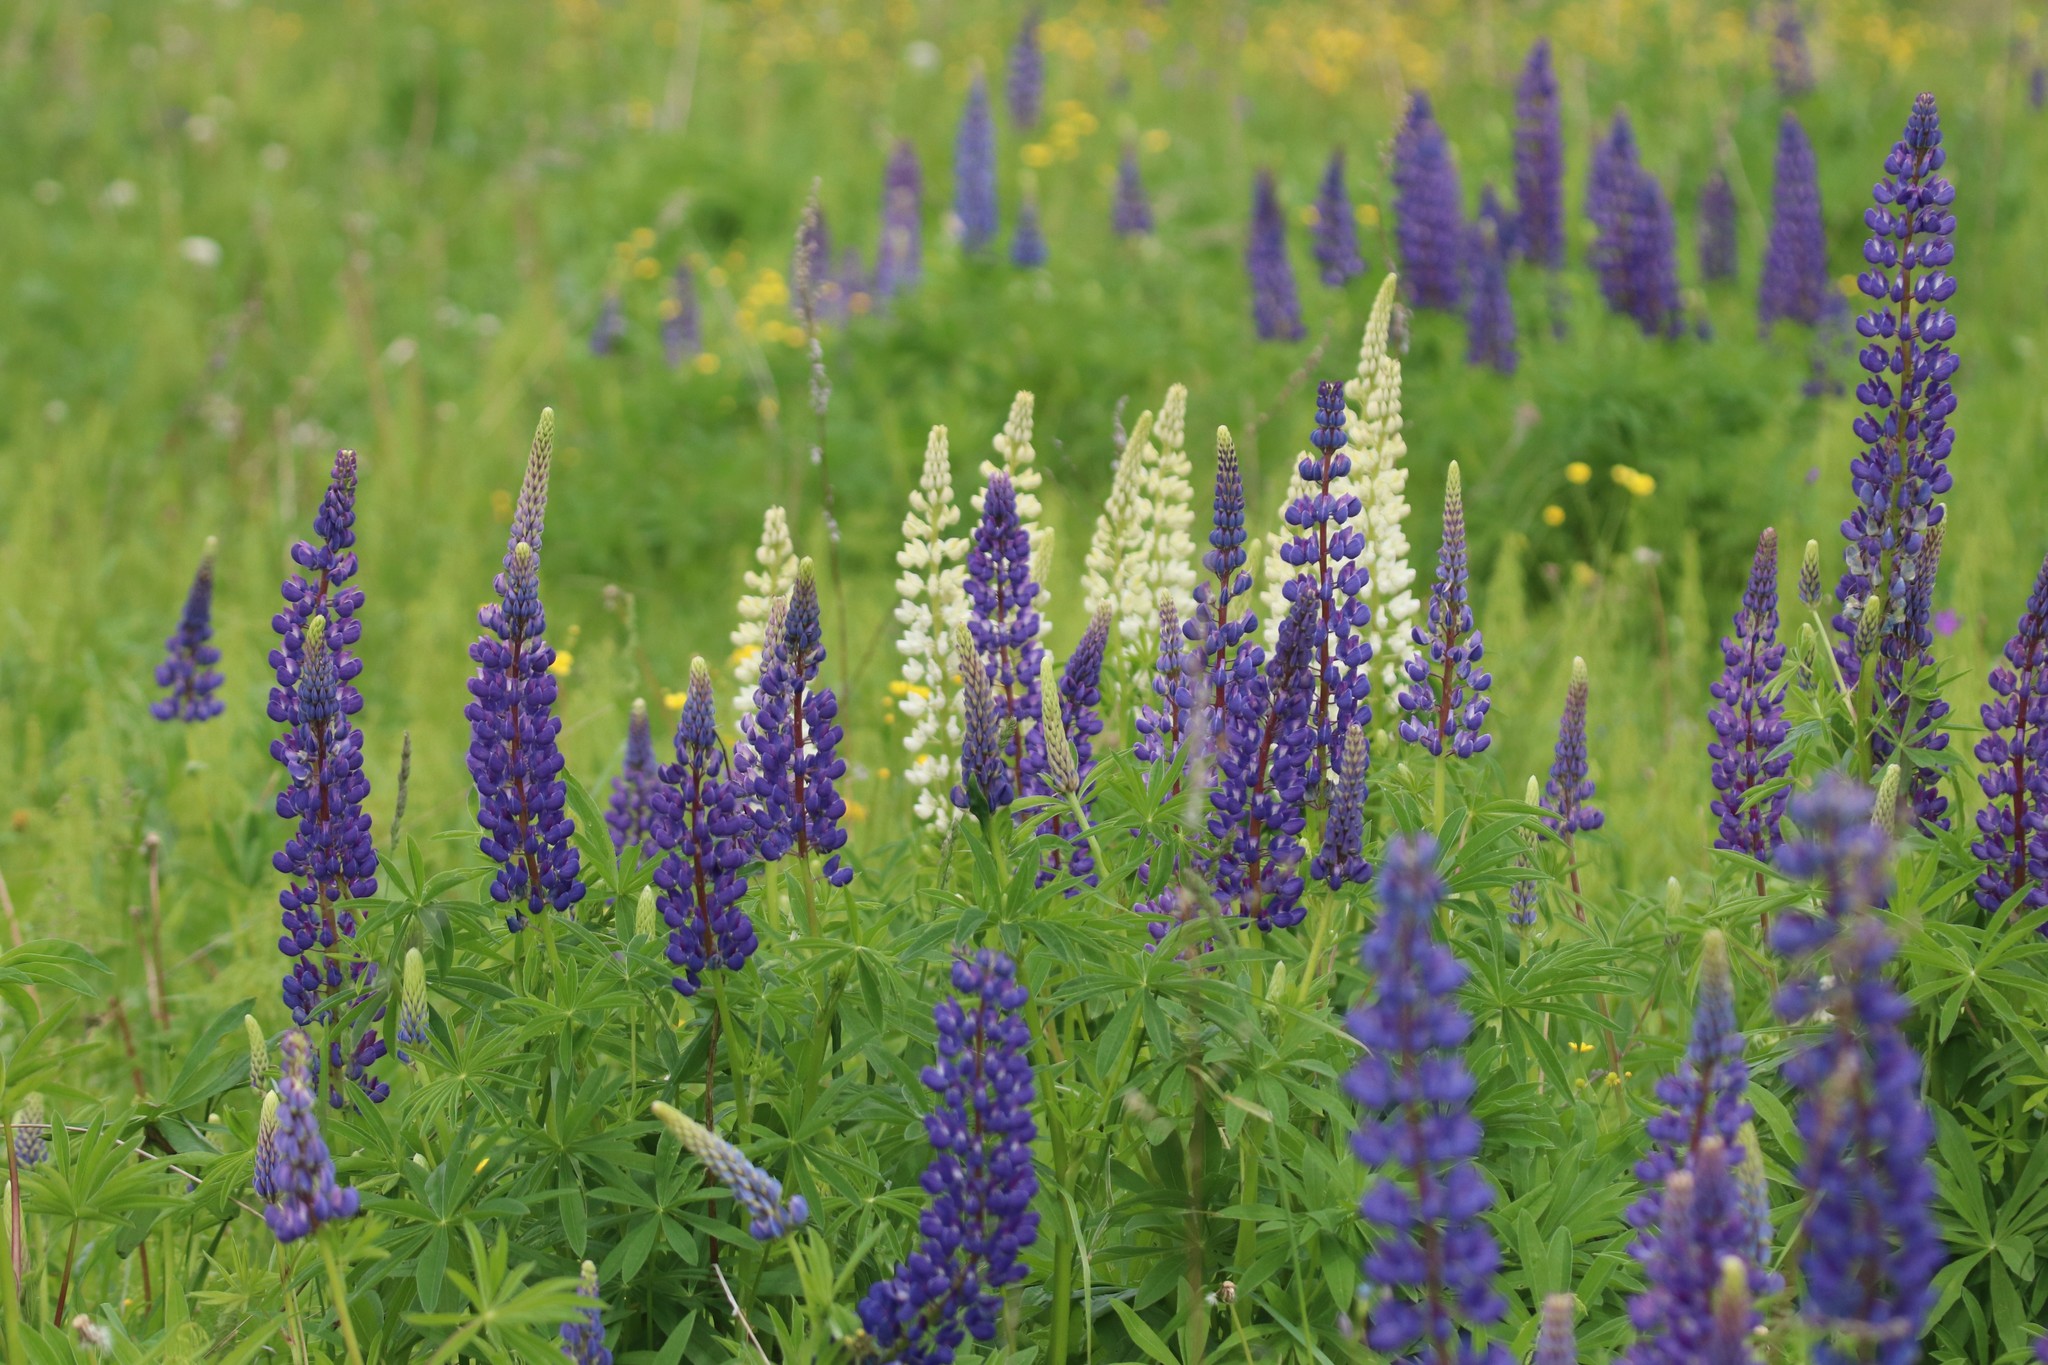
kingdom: Plantae
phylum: Tracheophyta
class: Magnoliopsida
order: Fabales
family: Fabaceae
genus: Lupinus
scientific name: Lupinus polyphyllus
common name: Garden lupin
